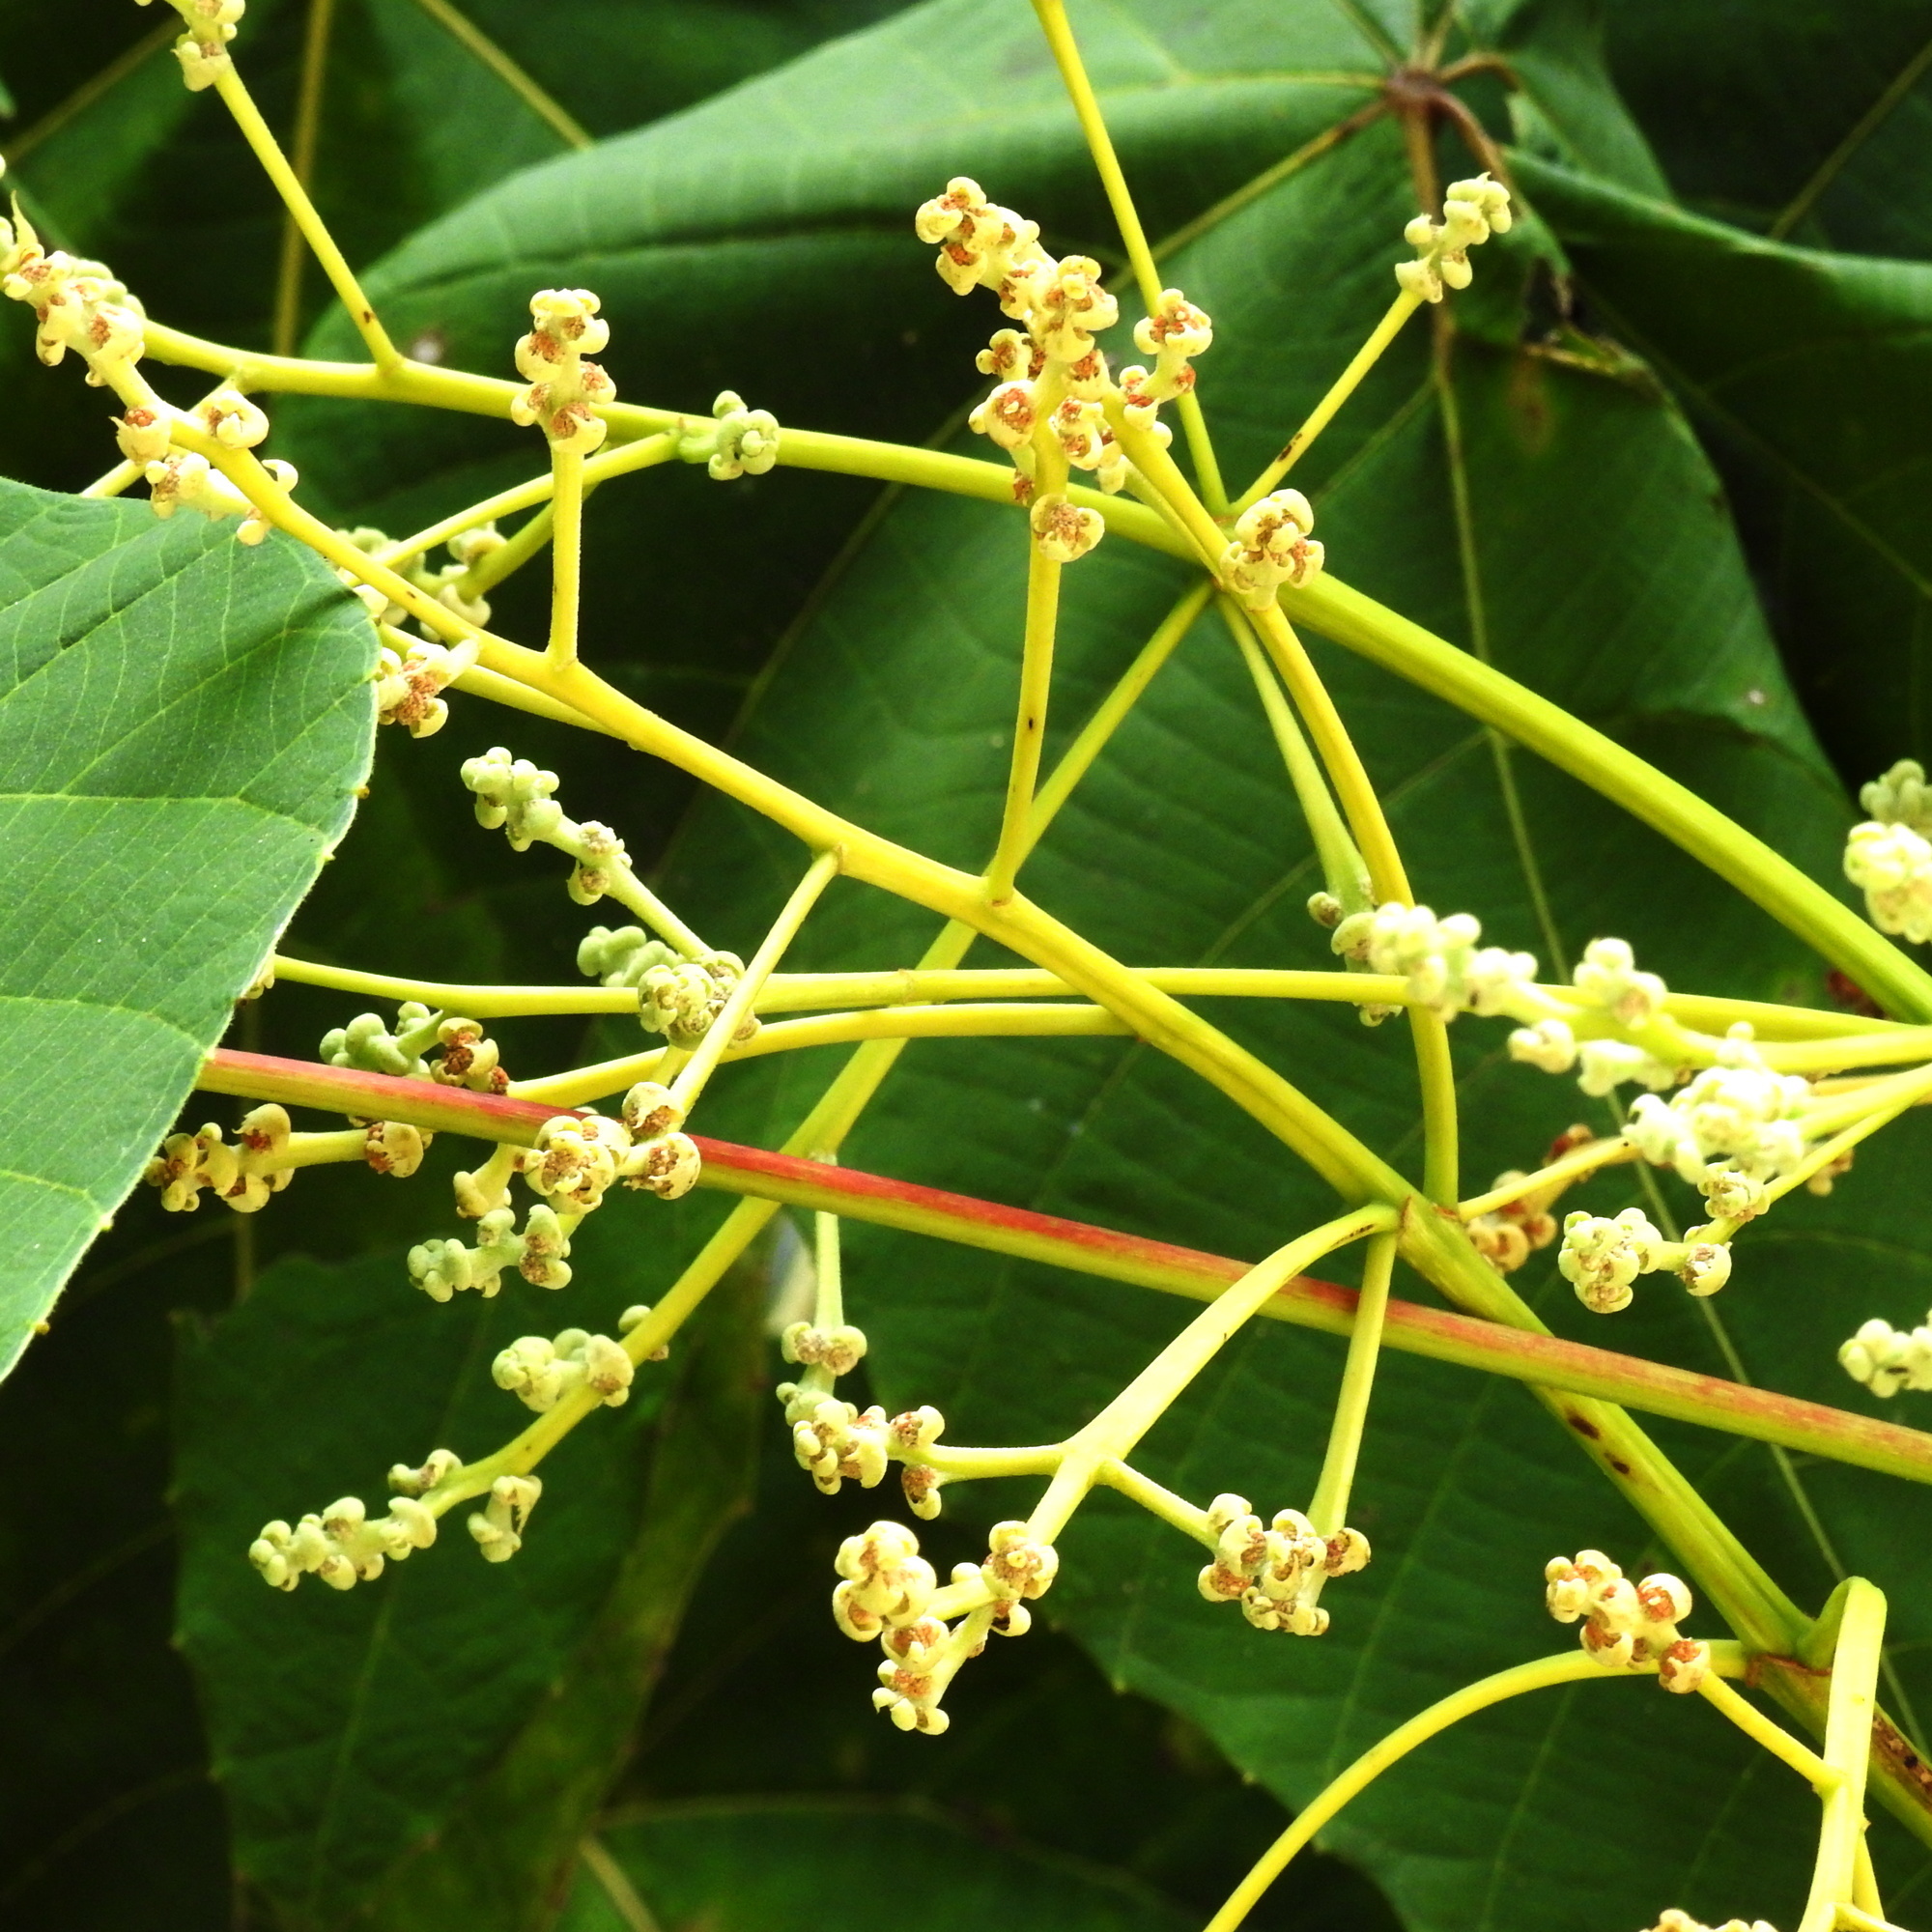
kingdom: Plantae
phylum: Tracheophyta
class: Magnoliopsida
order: Malpighiales
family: Euphorbiaceae
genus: Macaranga
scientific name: Macaranga triloba
